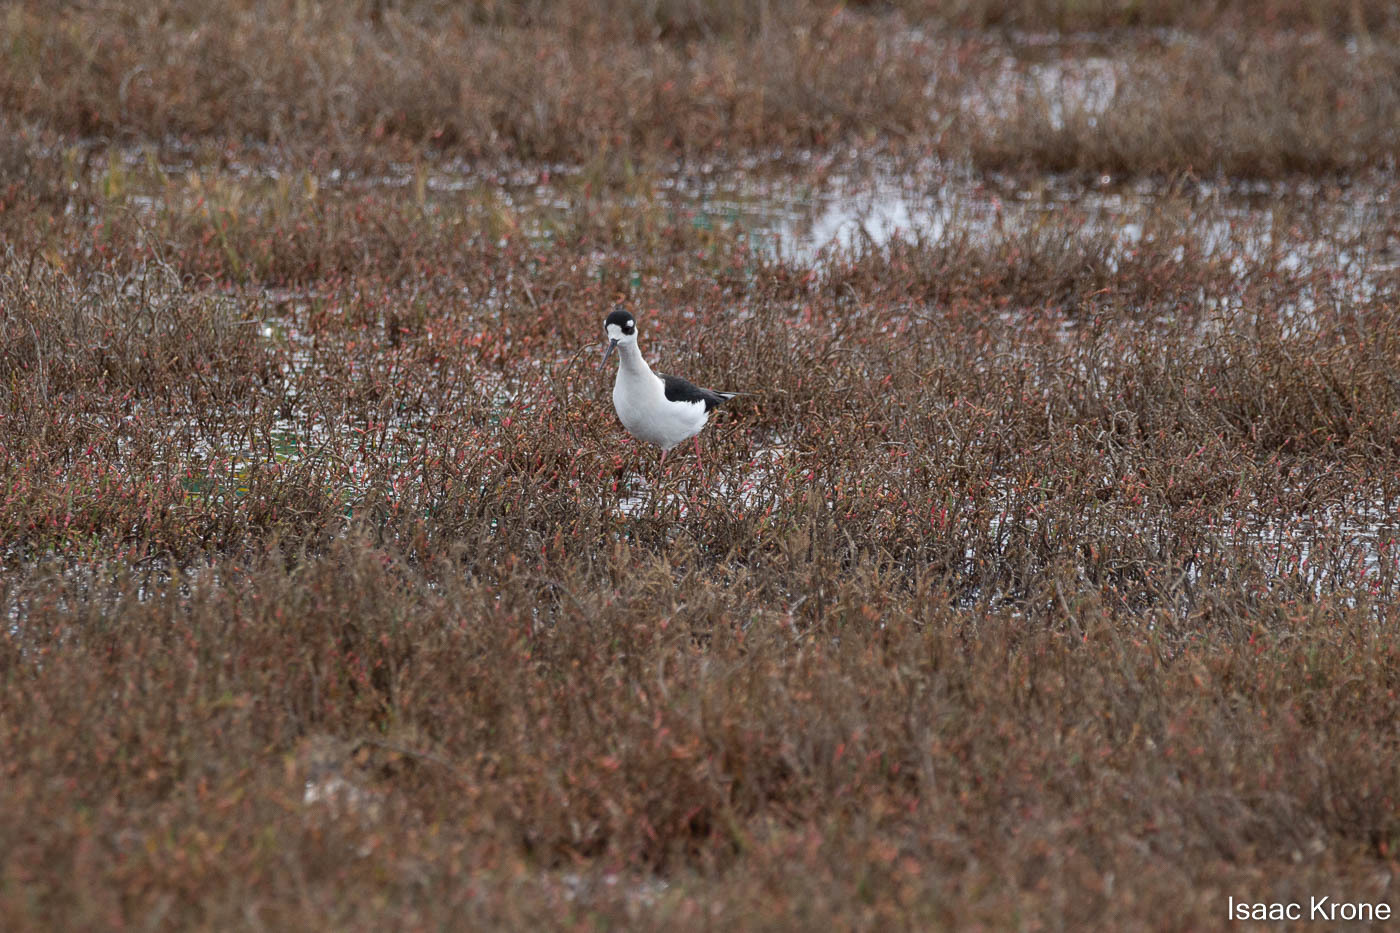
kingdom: Animalia
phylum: Chordata
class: Aves
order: Charadriiformes
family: Recurvirostridae
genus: Himantopus
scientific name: Himantopus mexicanus
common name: Black-necked stilt
